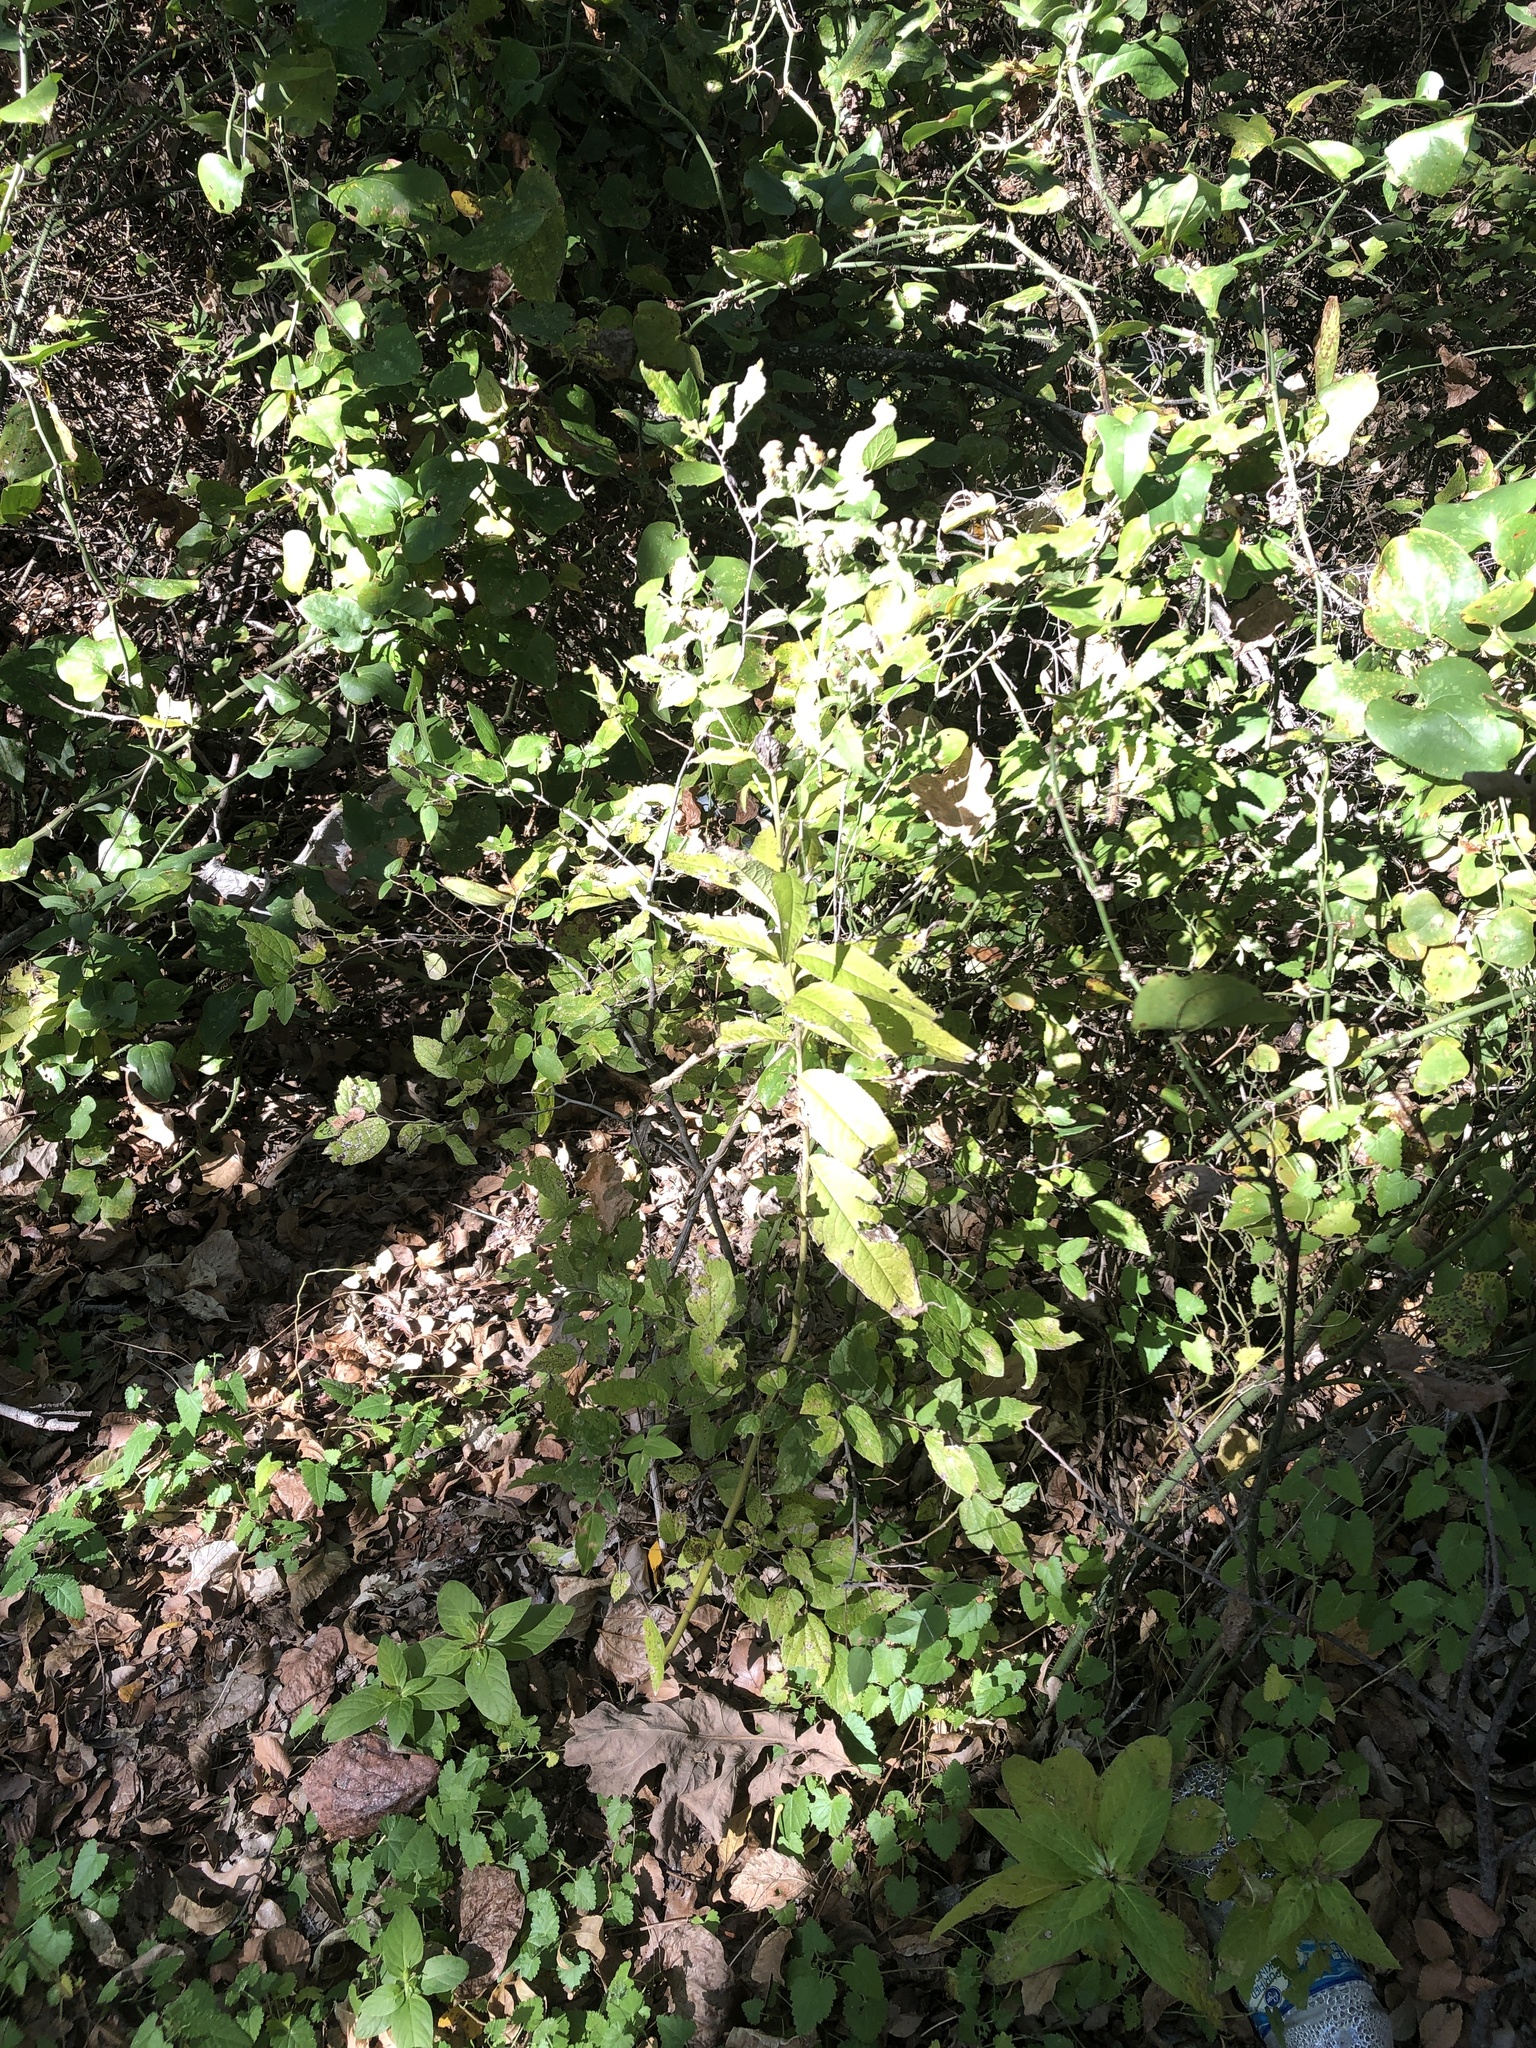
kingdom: Plantae
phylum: Tracheophyta
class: Magnoliopsida
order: Asterales
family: Asteraceae
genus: Vernonia
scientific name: Vernonia baldwinii
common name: Western ironweed
